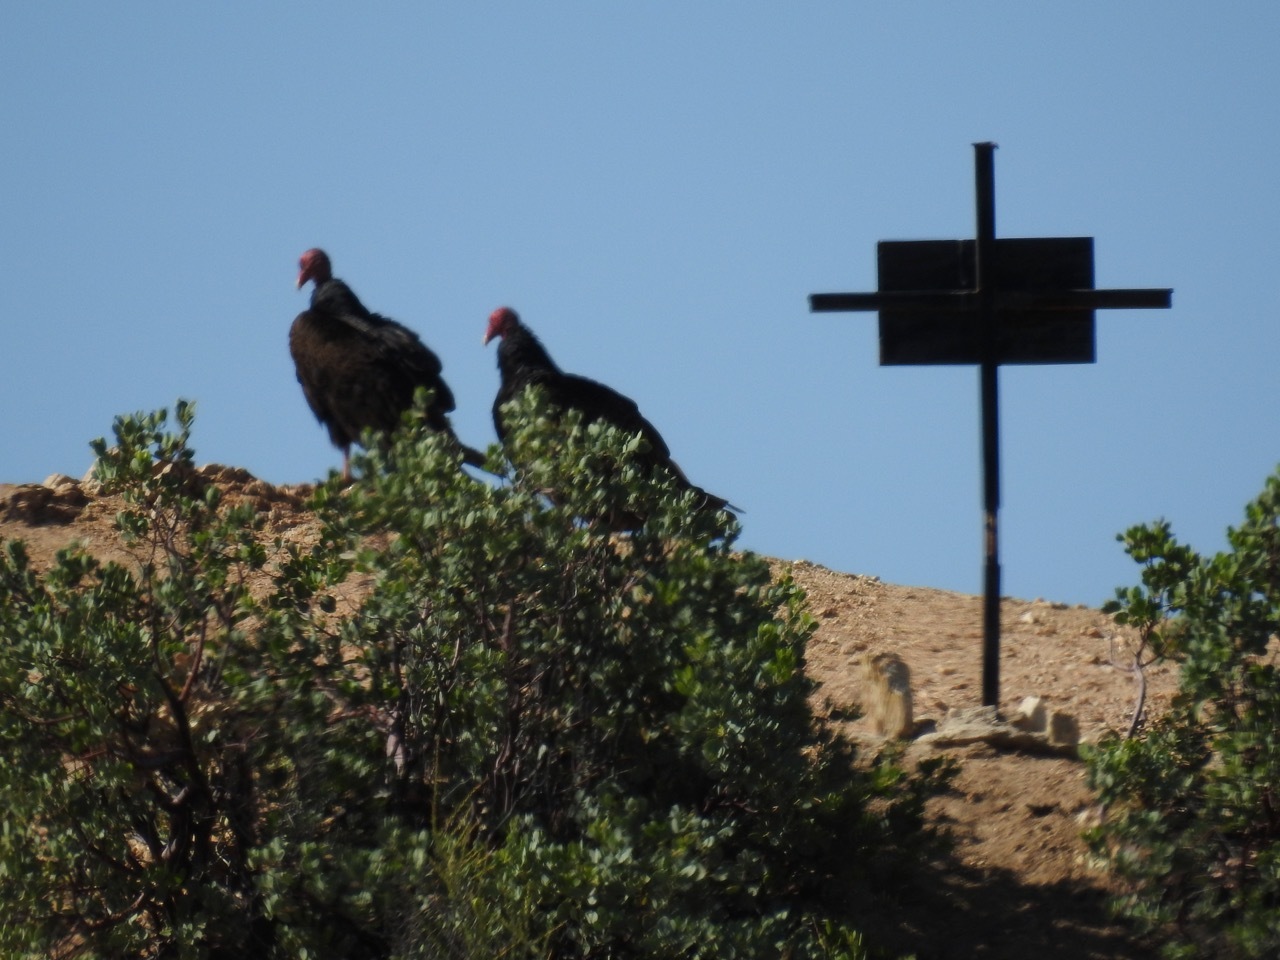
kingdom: Animalia
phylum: Chordata
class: Aves
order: Accipitriformes
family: Cathartidae
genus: Cathartes
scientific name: Cathartes aura
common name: Turkey vulture
